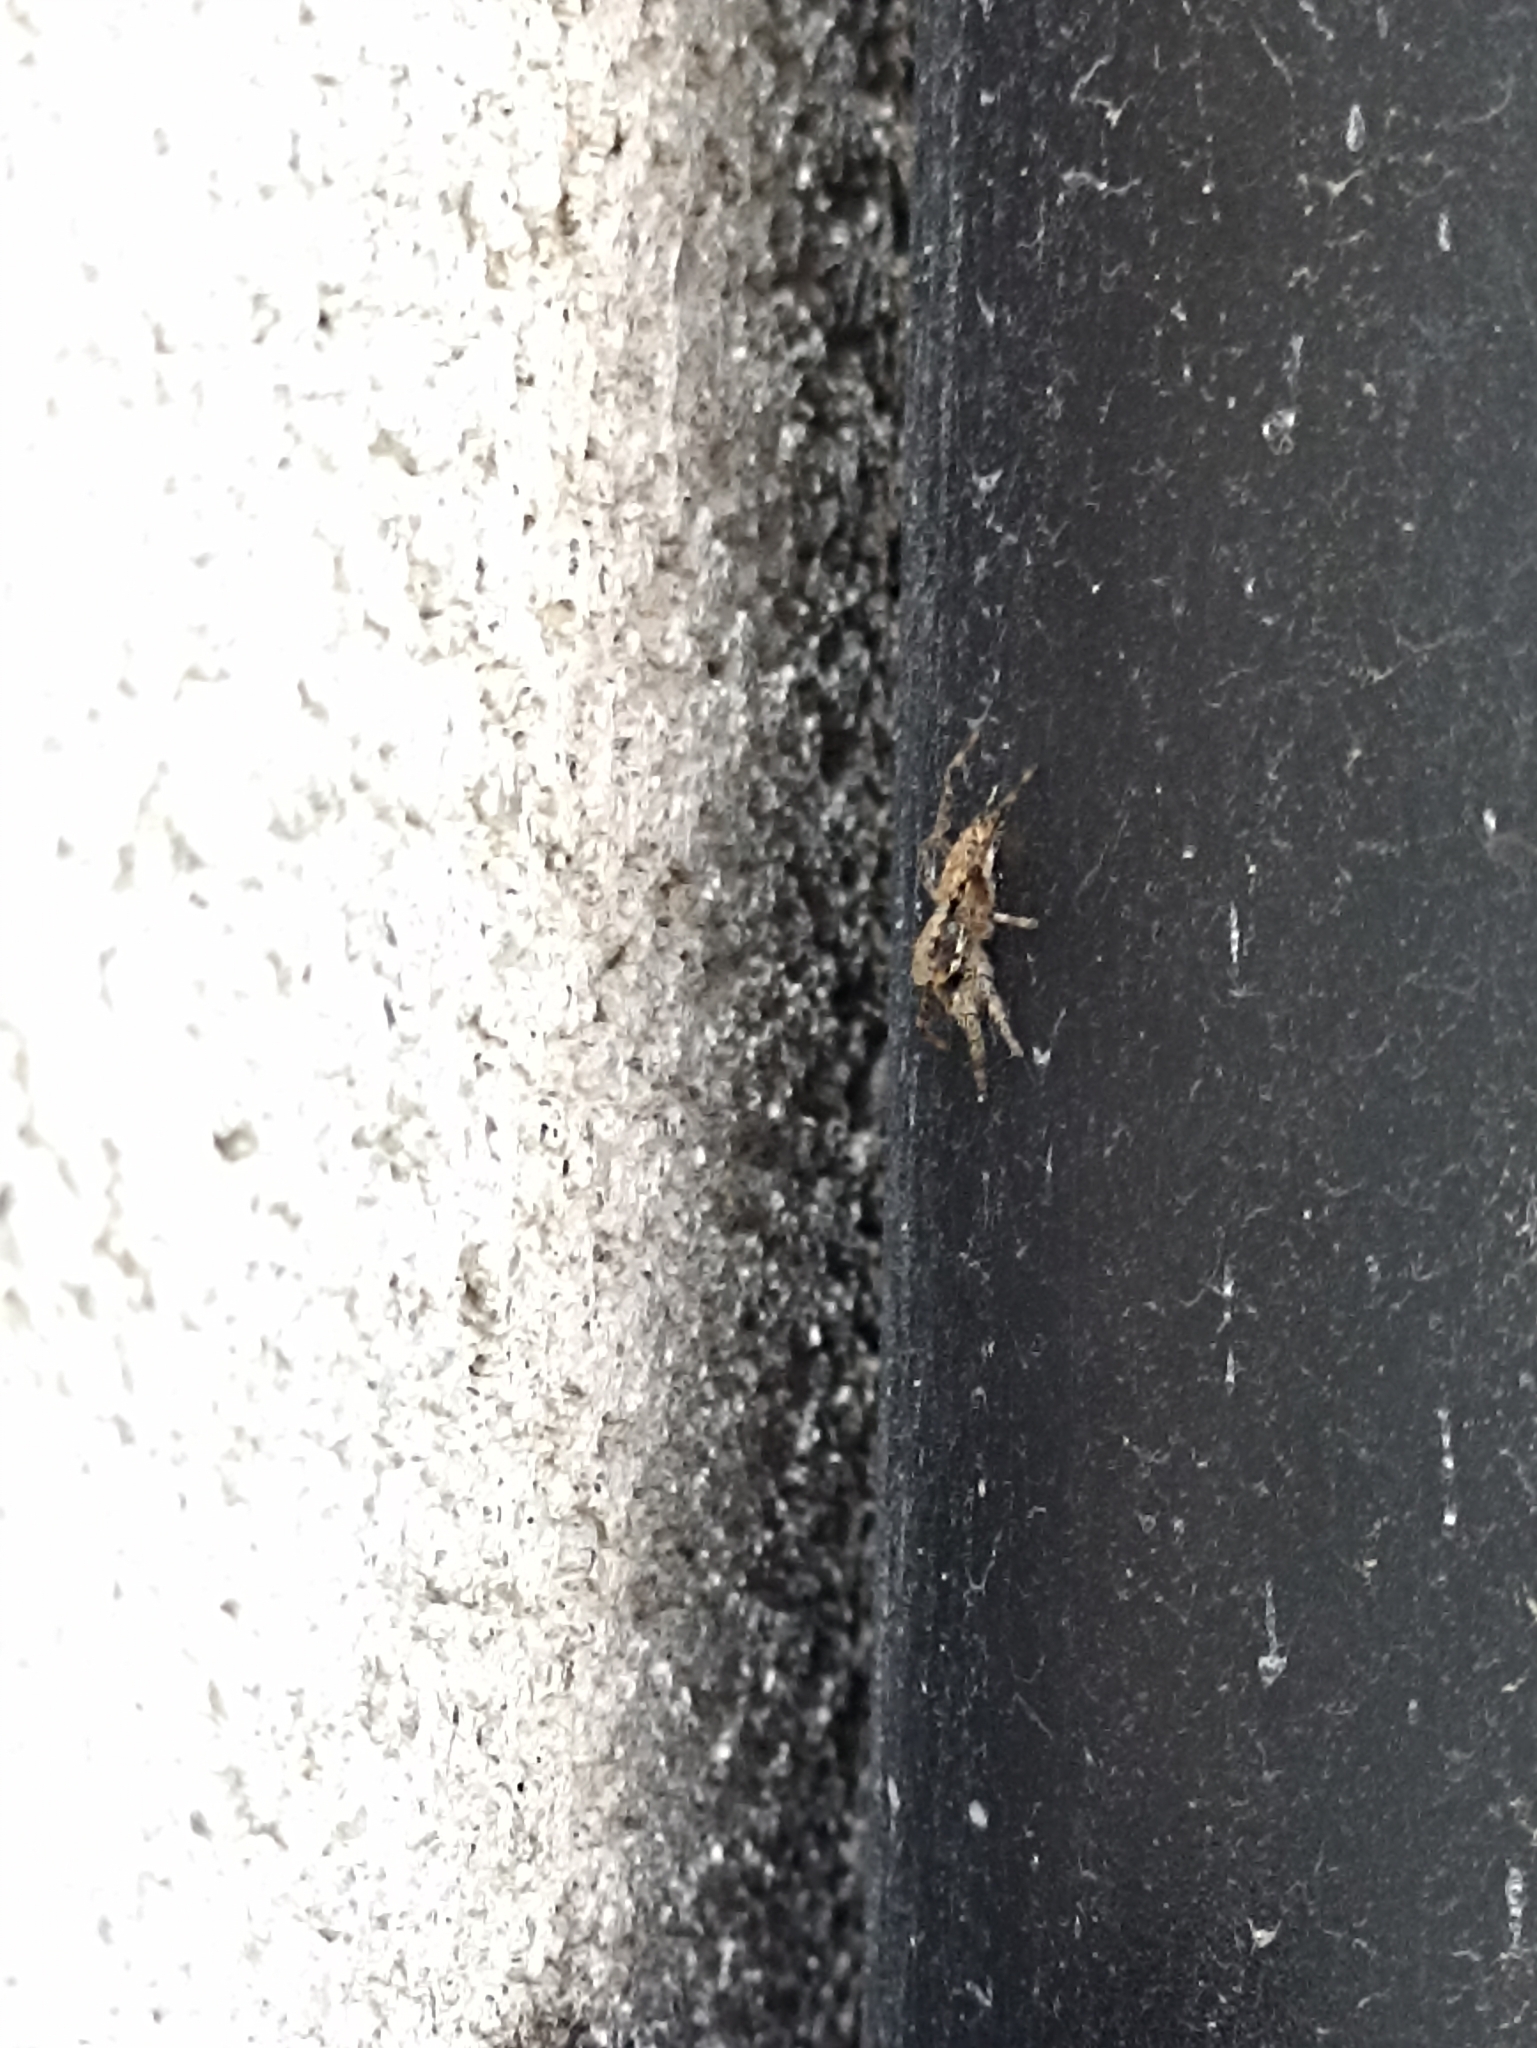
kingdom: Animalia
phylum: Arthropoda
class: Arachnida
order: Araneae
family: Salticidae
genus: Menemerus
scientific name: Menemerus bivittatus
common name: Gray wall jumper
